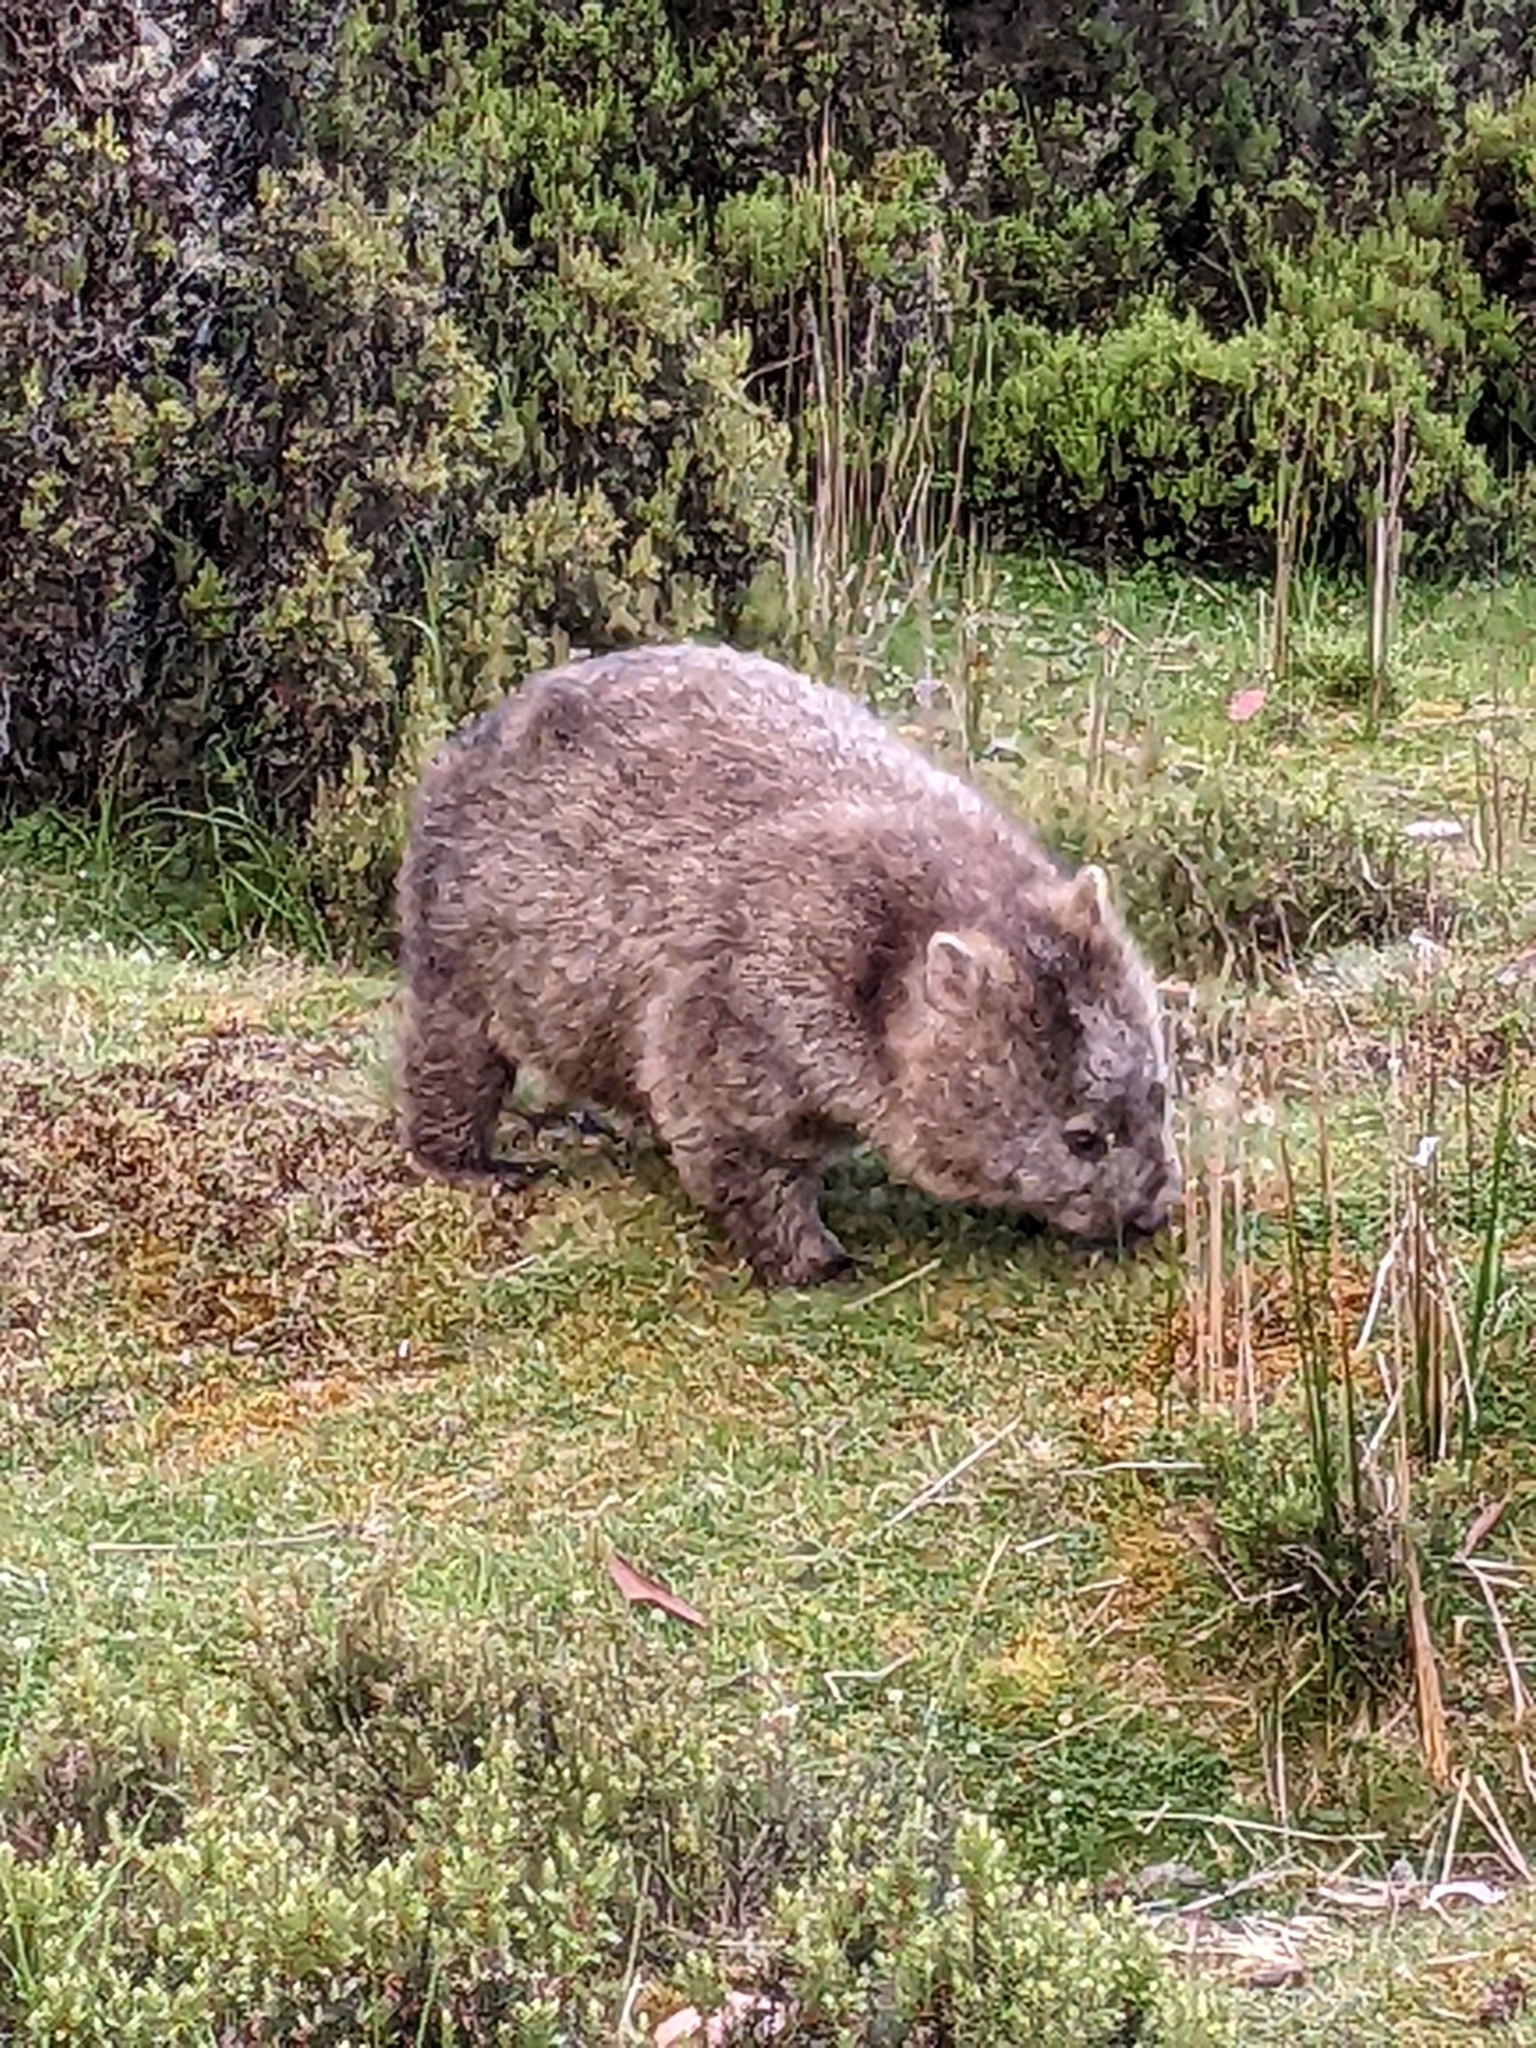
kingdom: Animalia
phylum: Chordata
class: Mammalia
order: Diprotodontia
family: Vombatidae
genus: Vombatus
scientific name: Vombatus ursinus
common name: Common wombat
